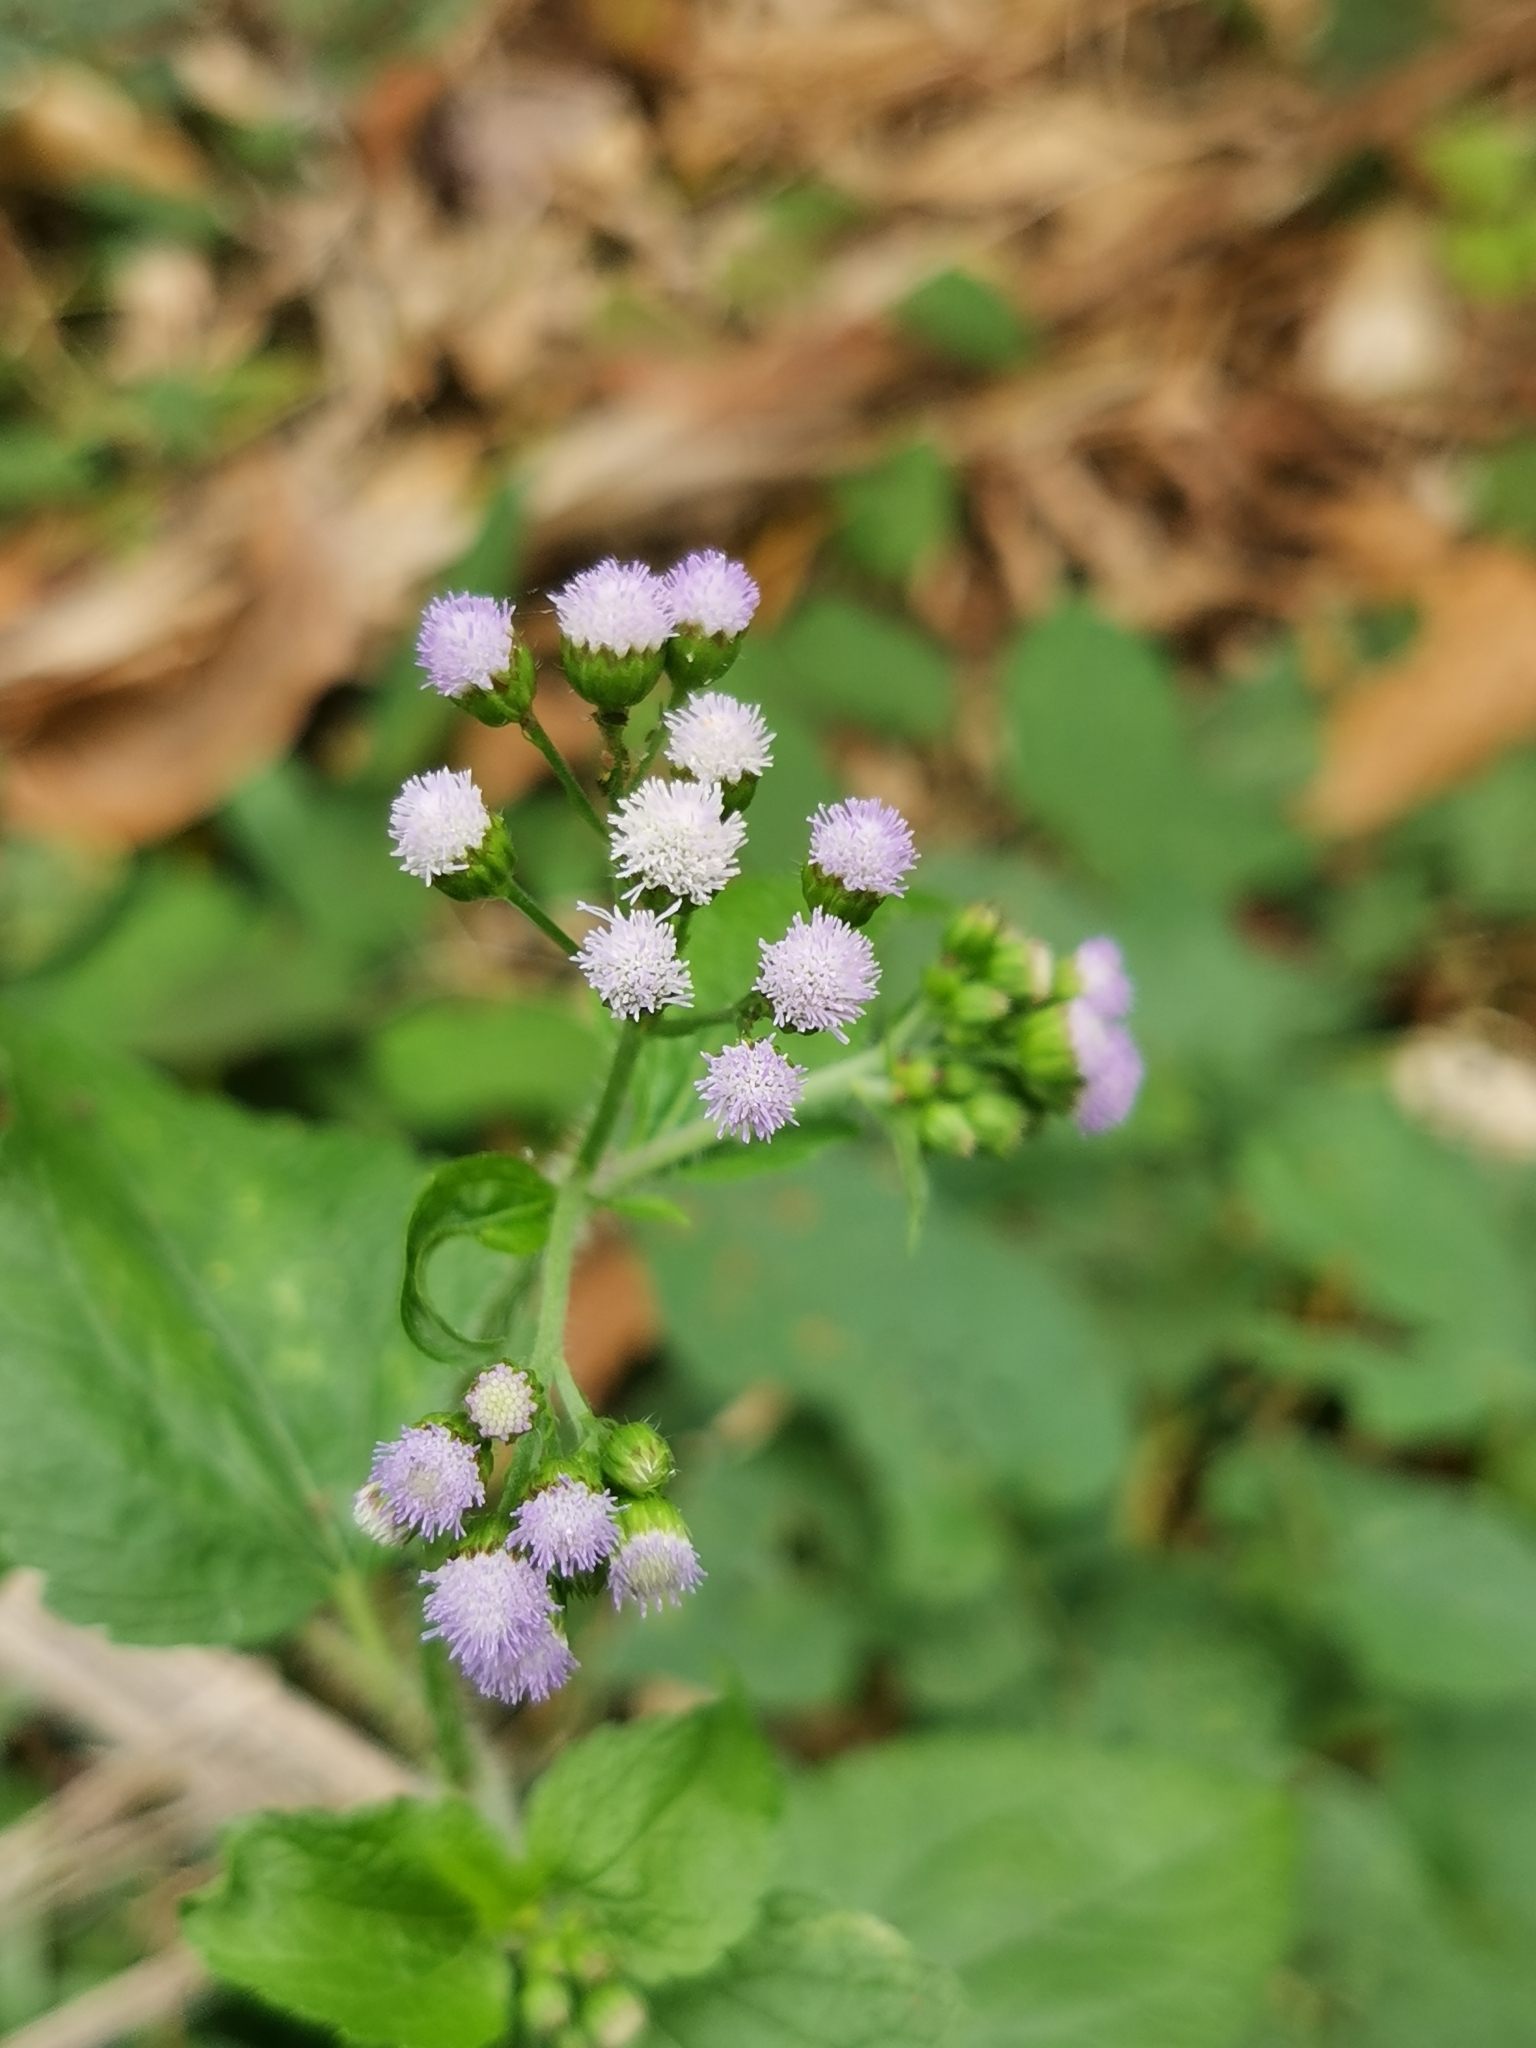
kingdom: Plantae
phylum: Tracheophyta
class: Magnoliopsida
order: Asterales
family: Asteraceae
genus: Ageratum
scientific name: Ageratum conyzoides
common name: Tropical whiteweed
